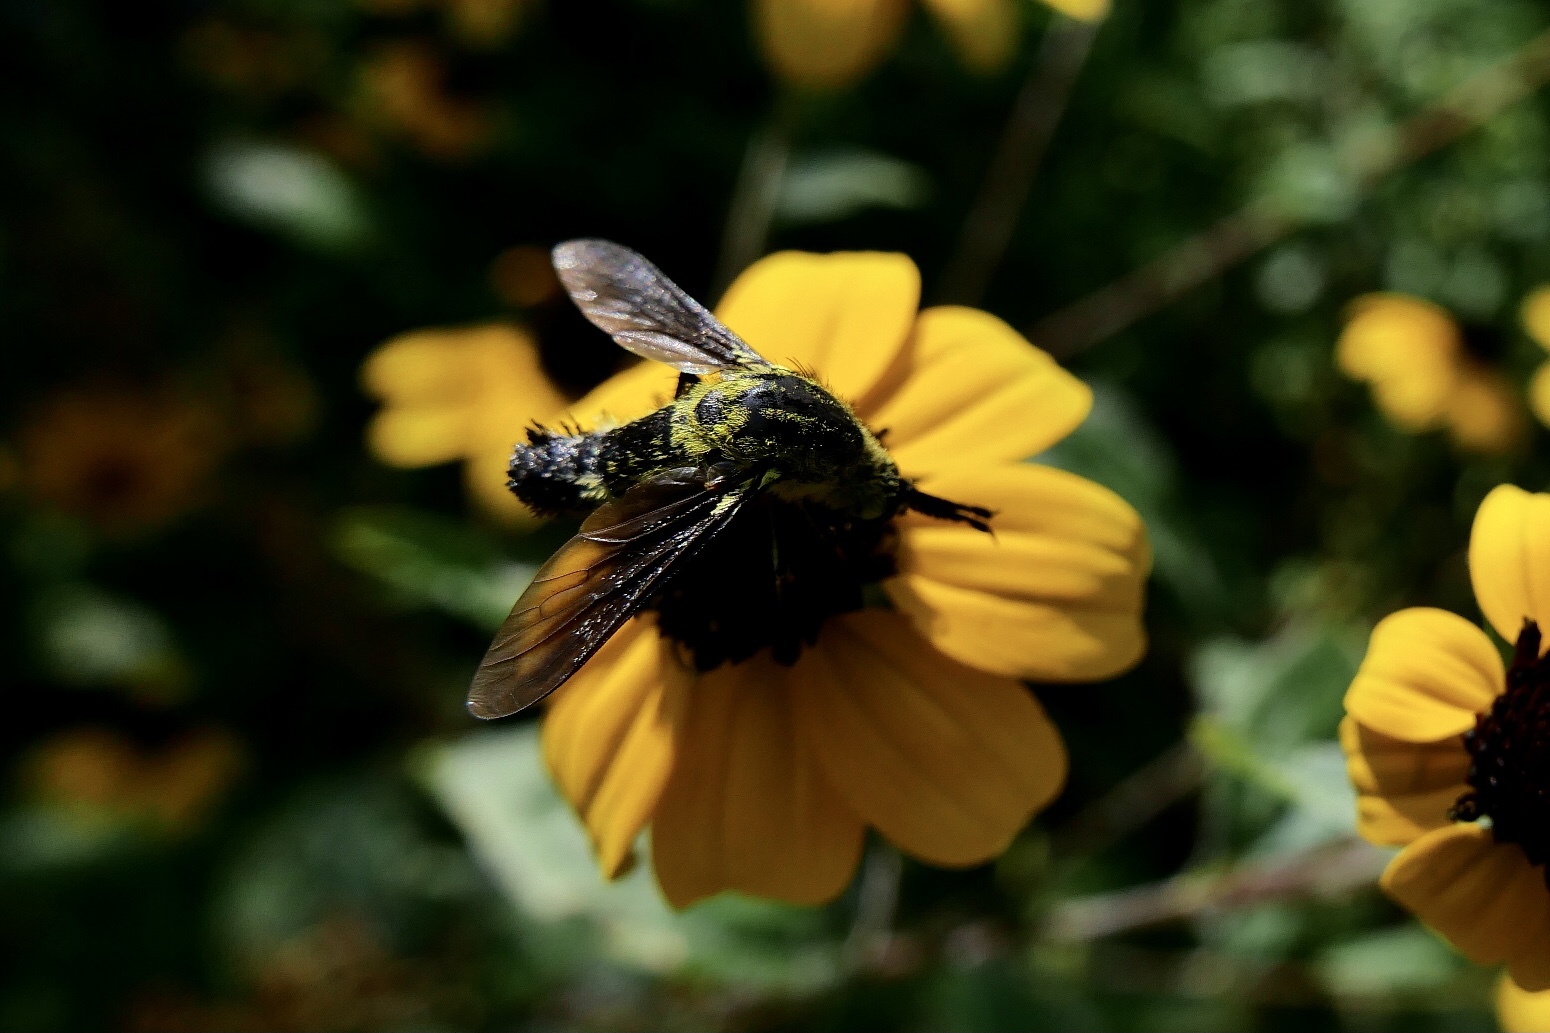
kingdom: Animalia
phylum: Arthropoda
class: Insecta
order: Diptera
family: Bombyliidae
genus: Lepidophora
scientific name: Lepidophora lutea
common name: Hunchback bee fly
